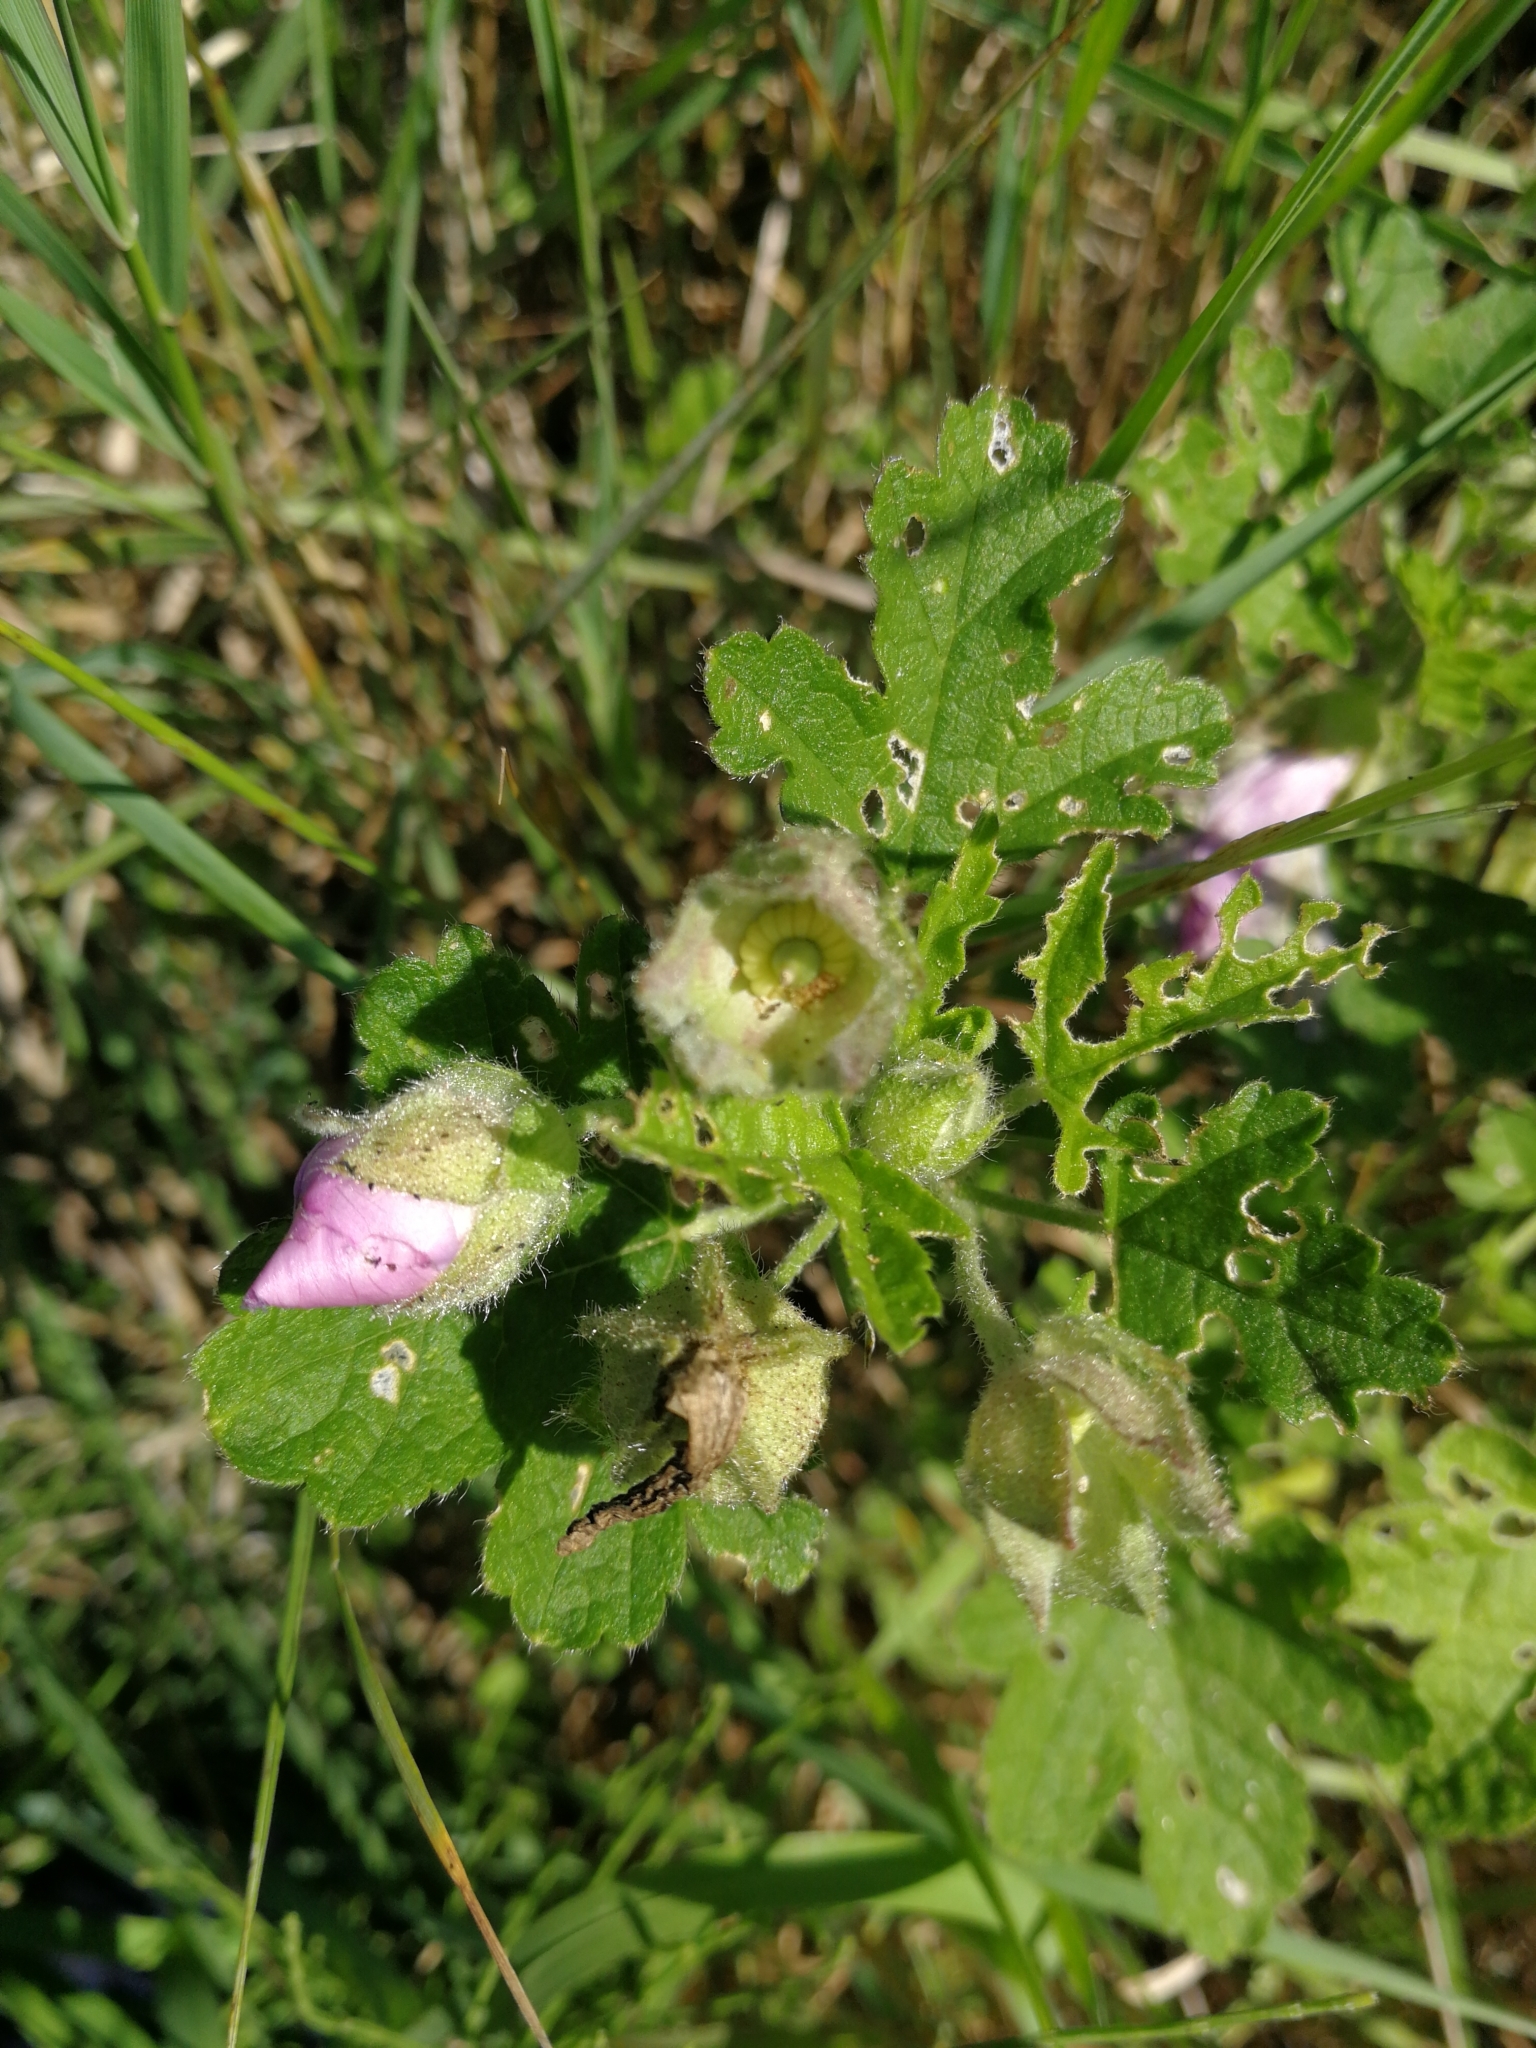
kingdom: Plantae
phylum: Tracheophyta
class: Magnoliopsida
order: Malvales
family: Malvaceae
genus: Malva
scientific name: Malva alcea
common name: Greater musk-mallow
